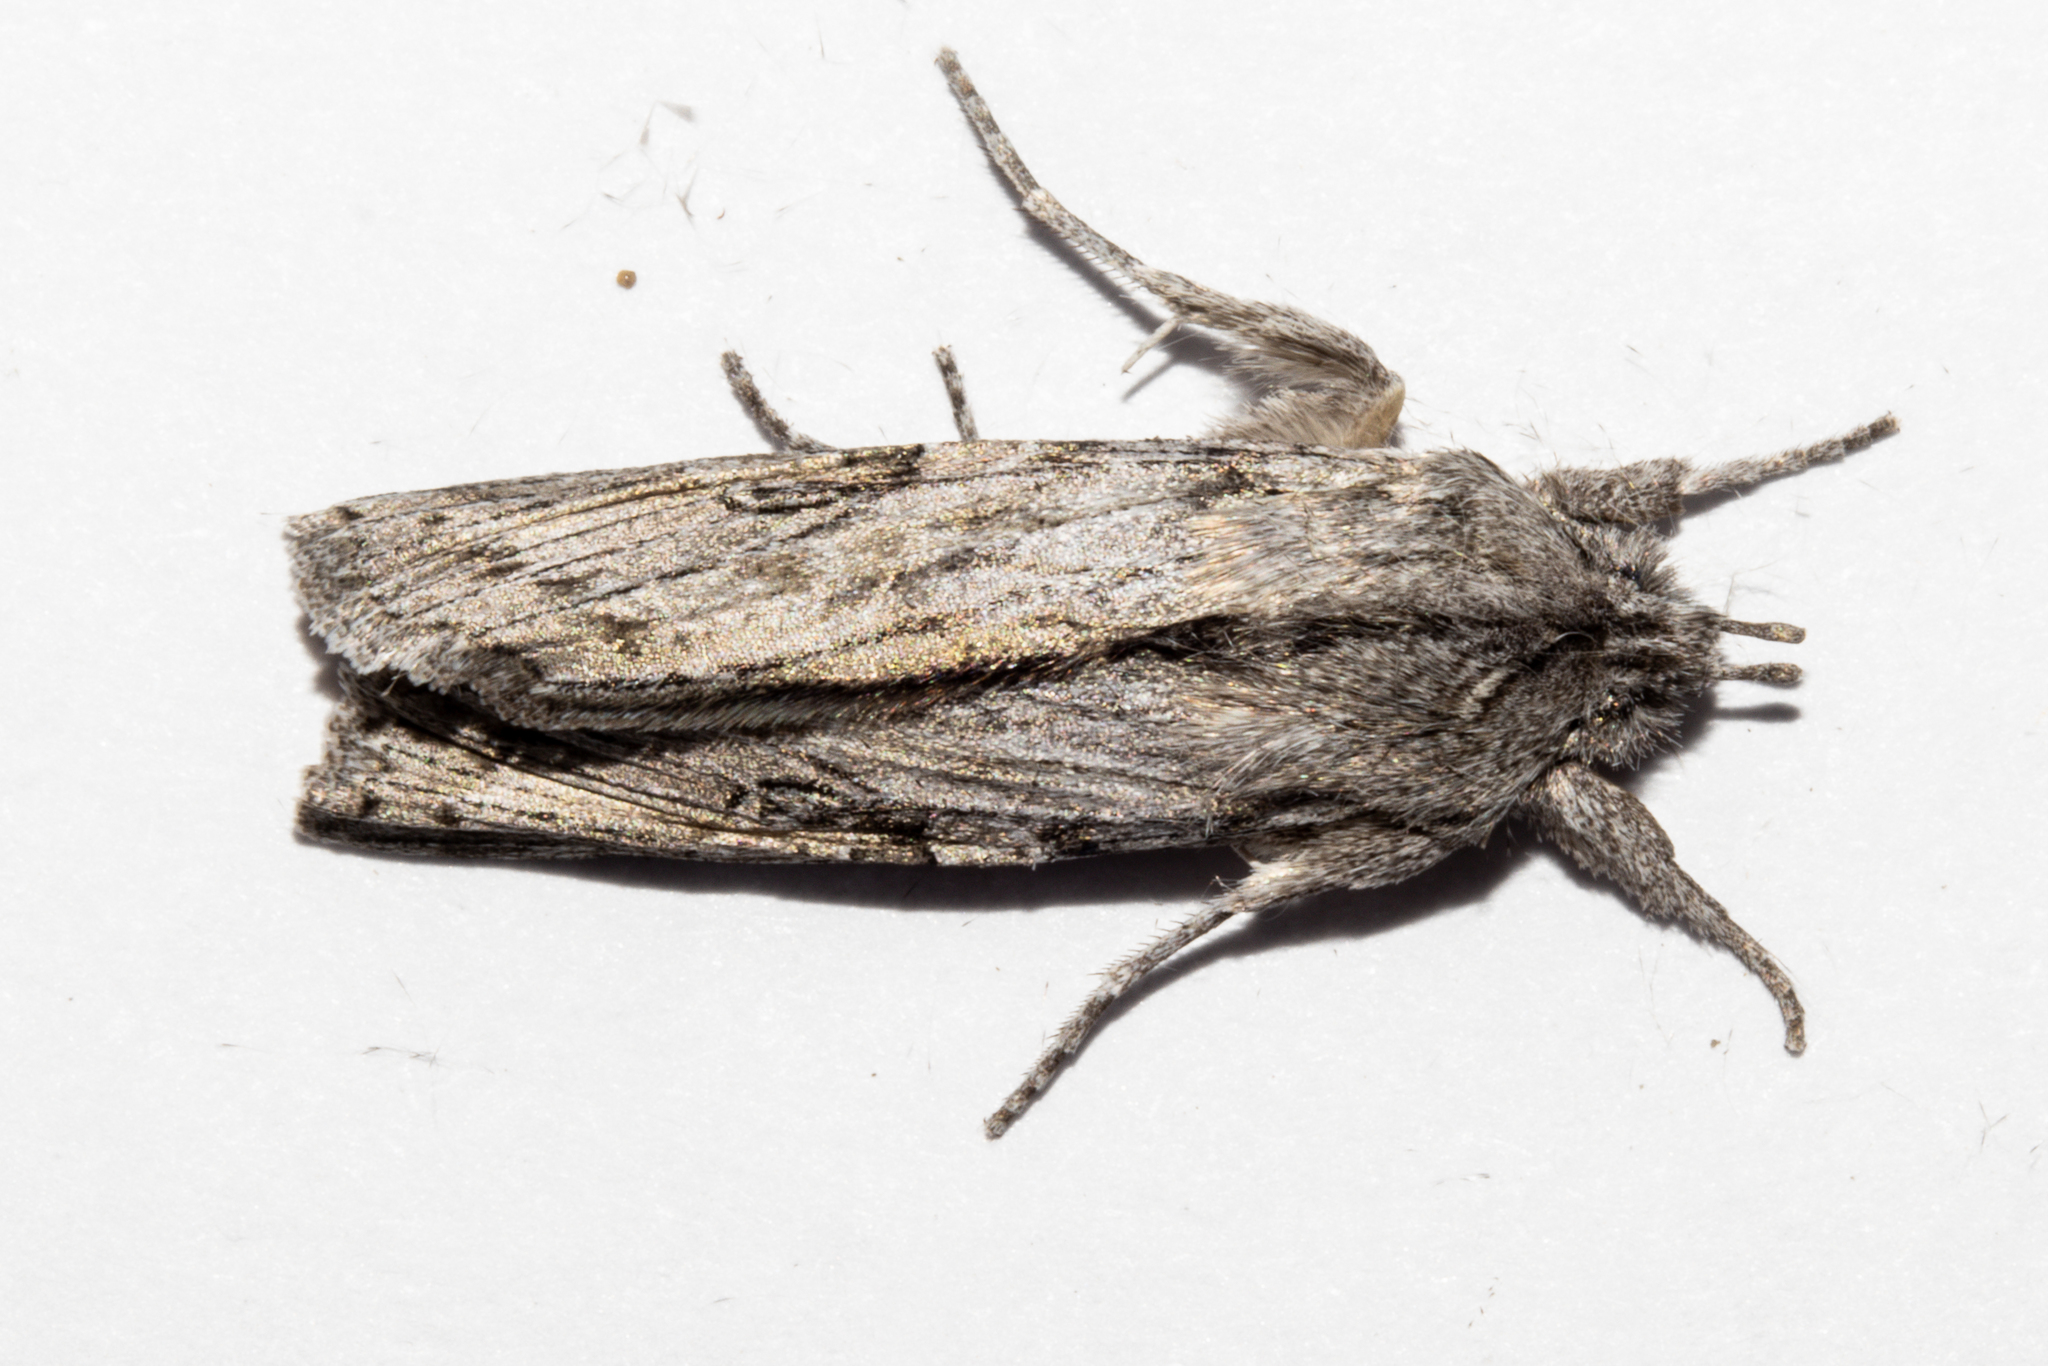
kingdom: Animalia
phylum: Arthropoda
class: Insecta
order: Lepidoptera
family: Noctuidae
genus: Physetica
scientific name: Physetica phricias
